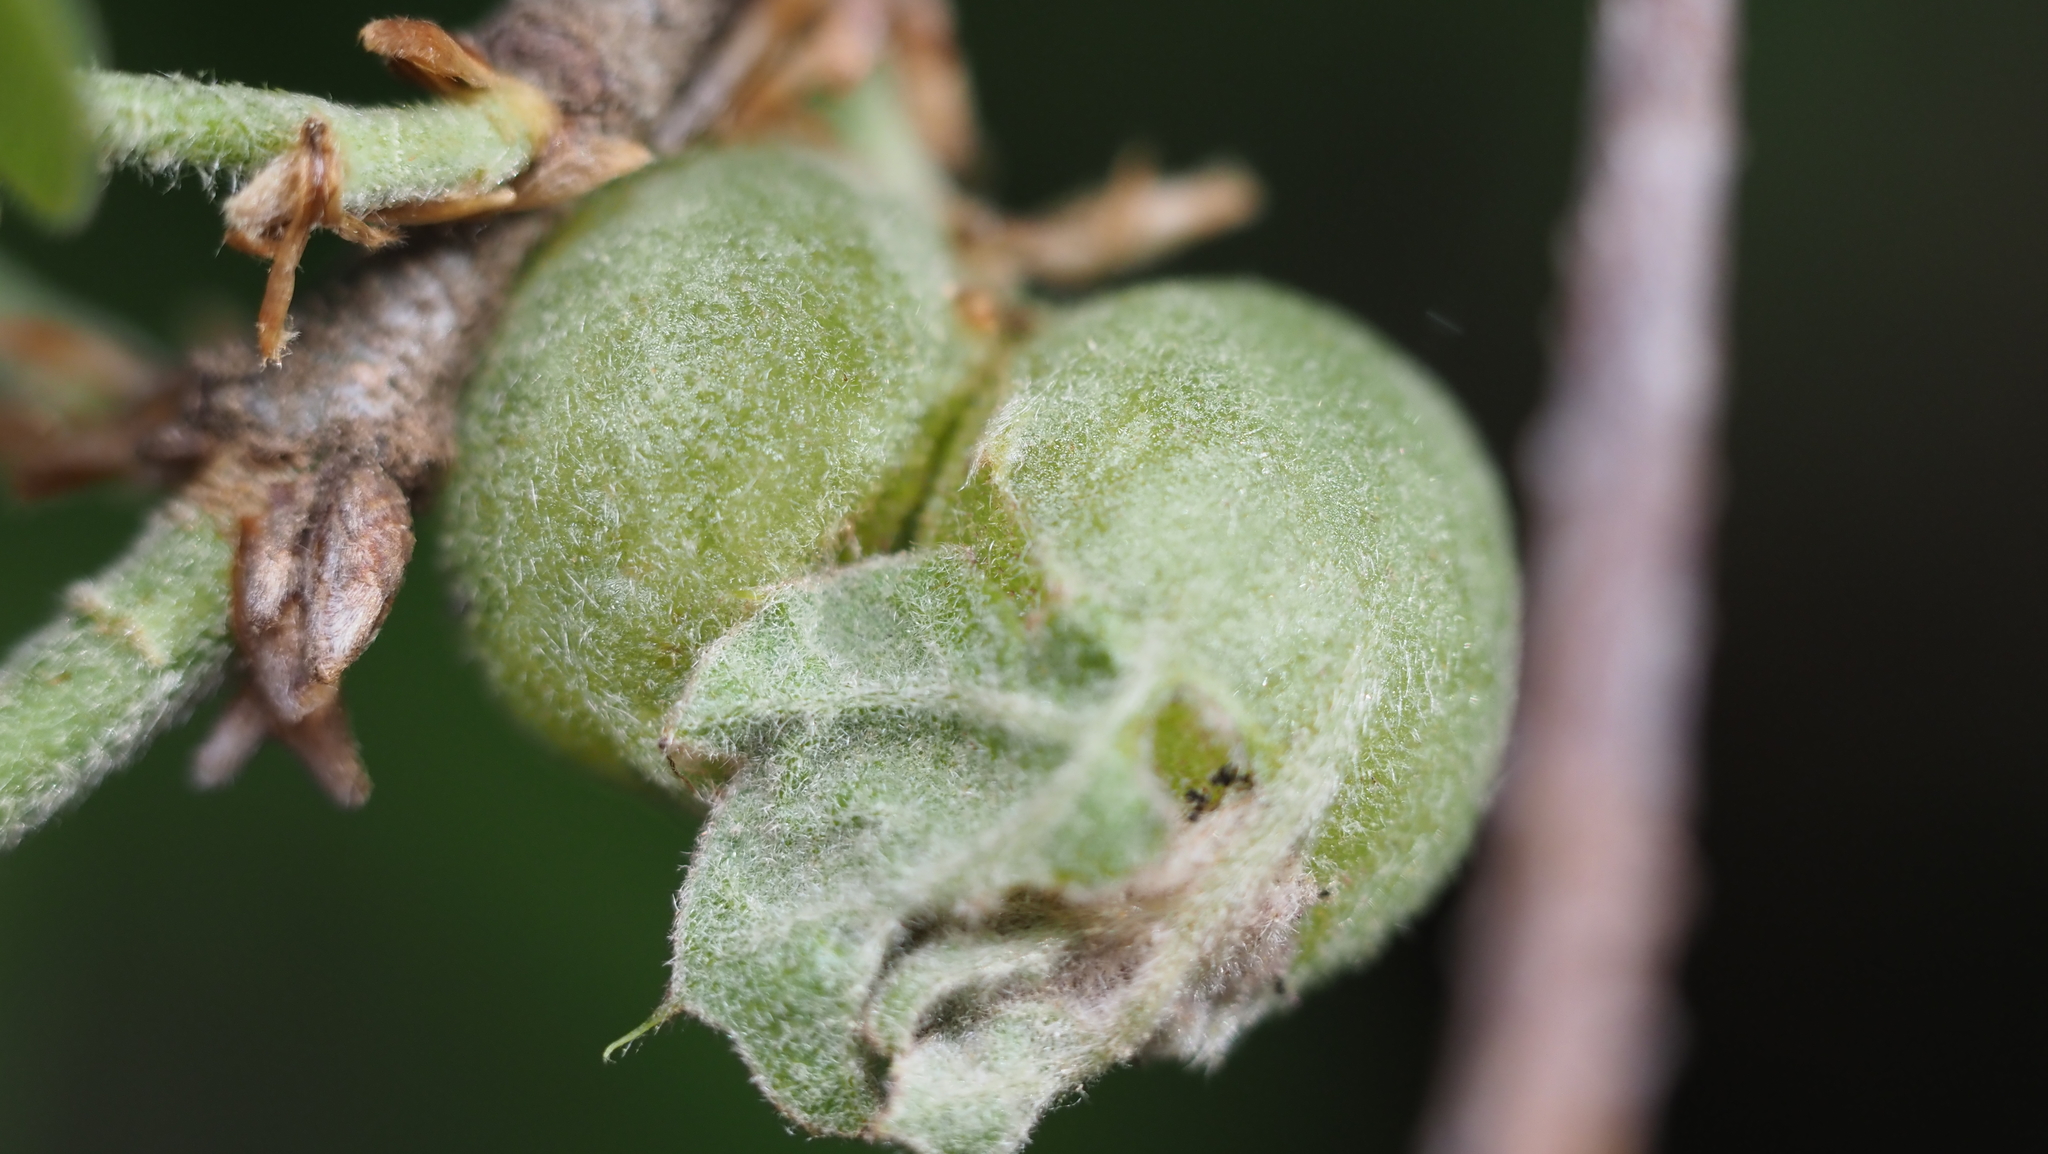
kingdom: Animalia
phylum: Arthropoda
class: Insecta
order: Hymenoptera
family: Cynipidae
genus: Dryocosmus
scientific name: Dryocosmus quercuspalustris
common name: Succulent oak gall wasp
